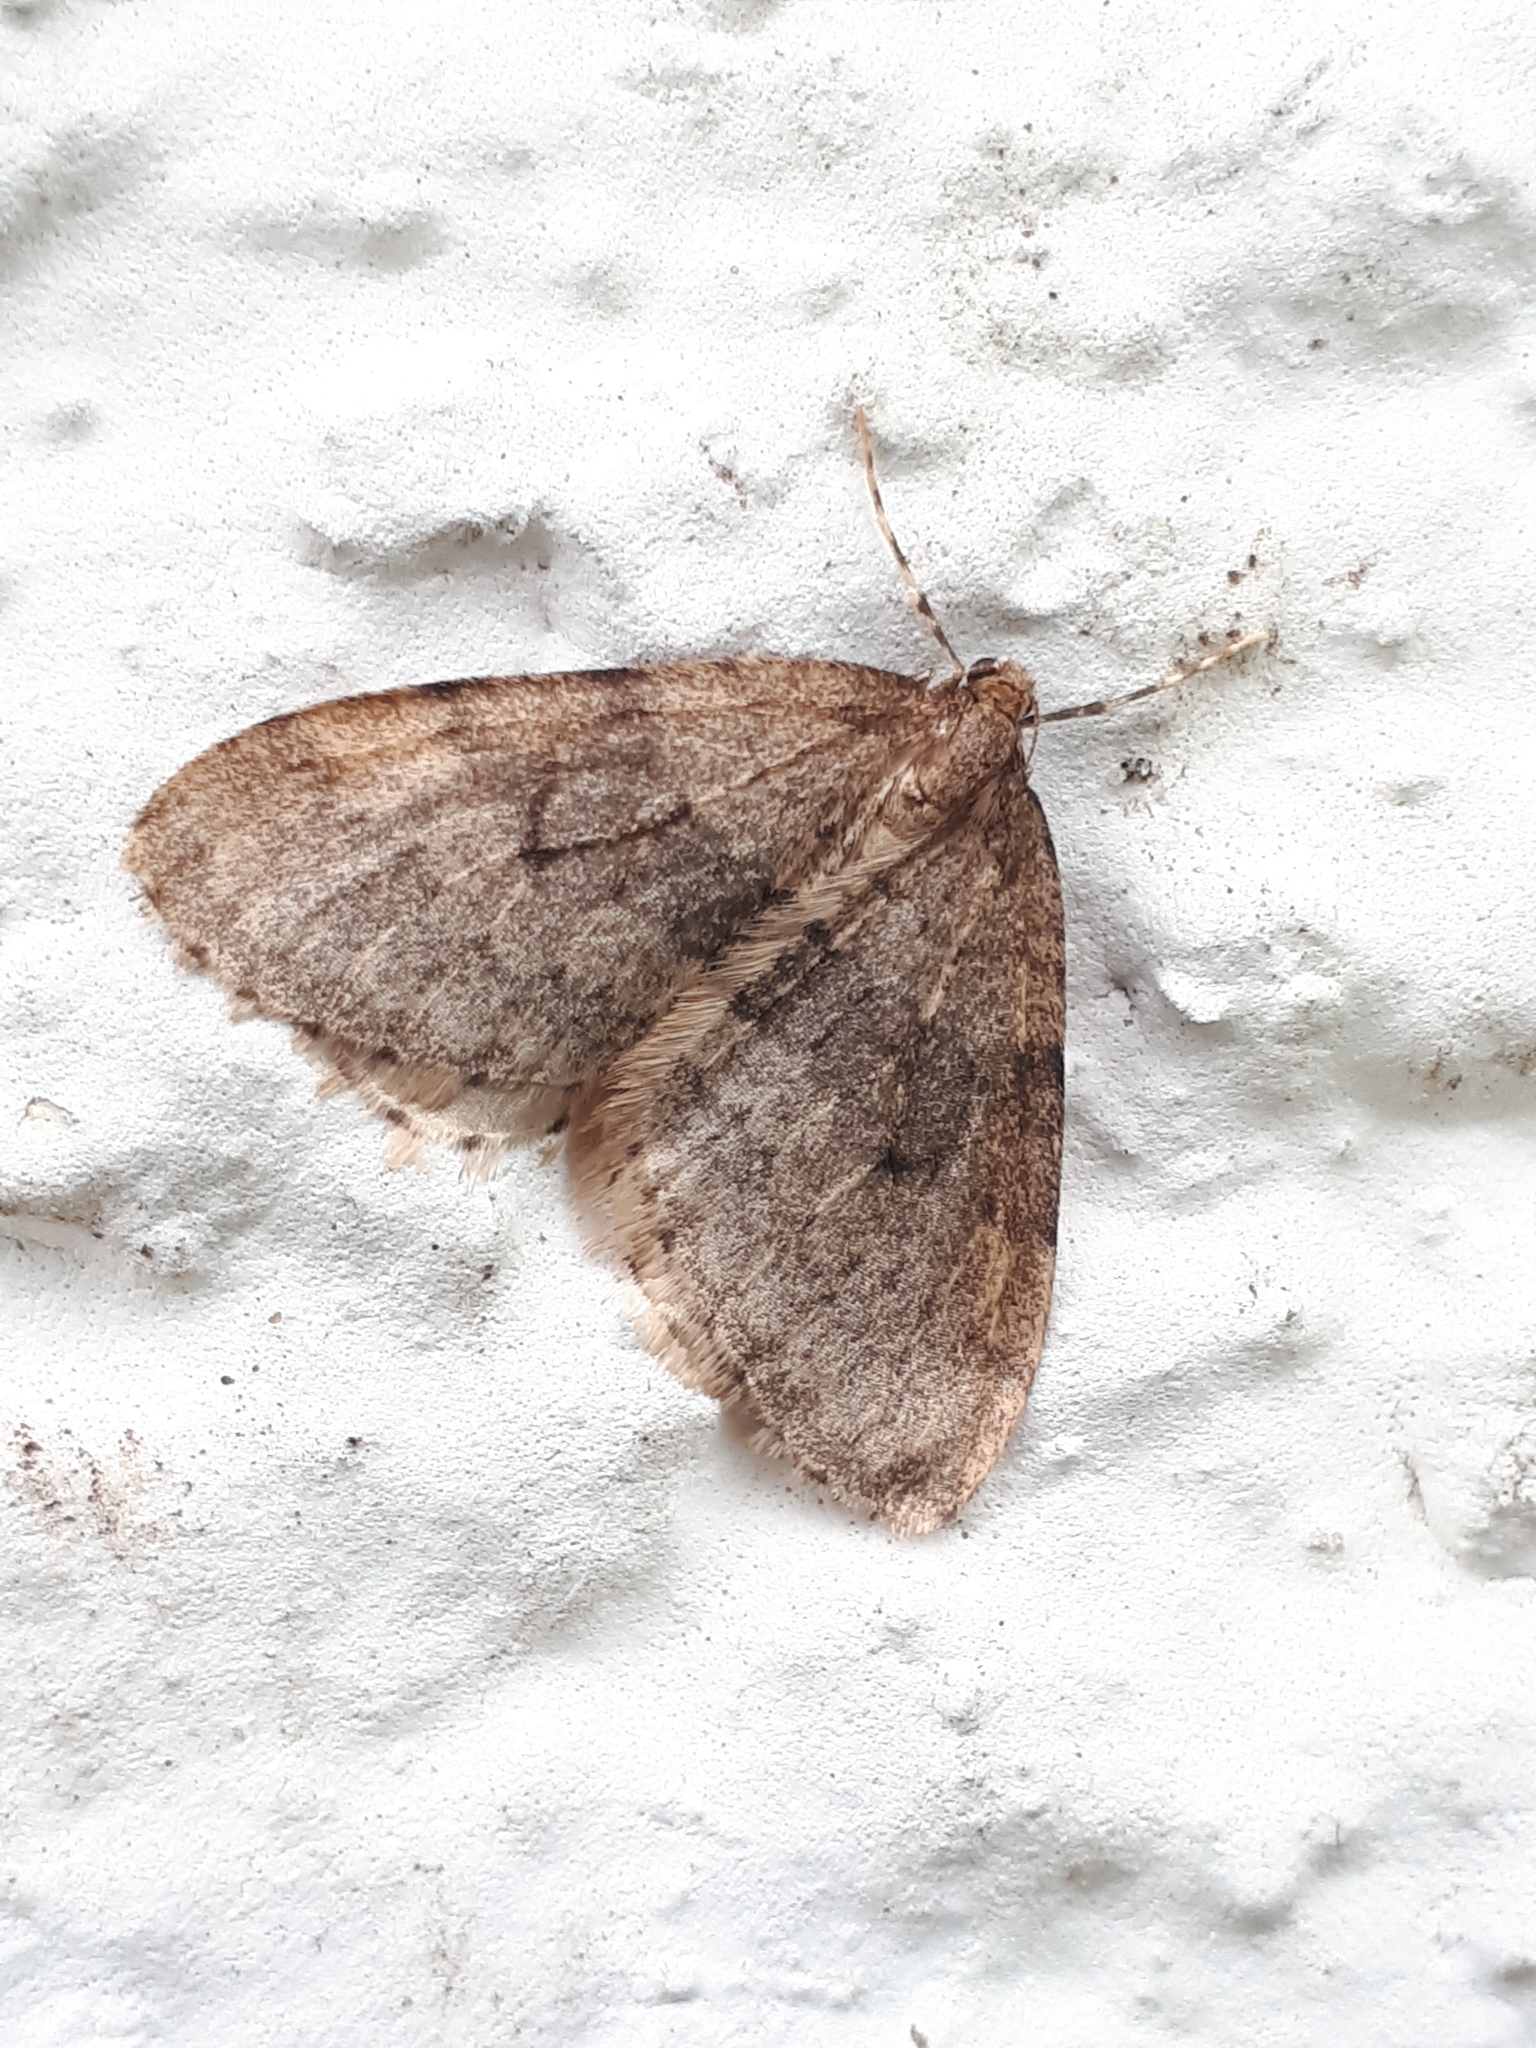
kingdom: Animalia
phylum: Arthropoda
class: Insecta
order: Lepidoptera
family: Geometridae
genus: Operophtera
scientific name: Operophtera brumata
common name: Winter moth
